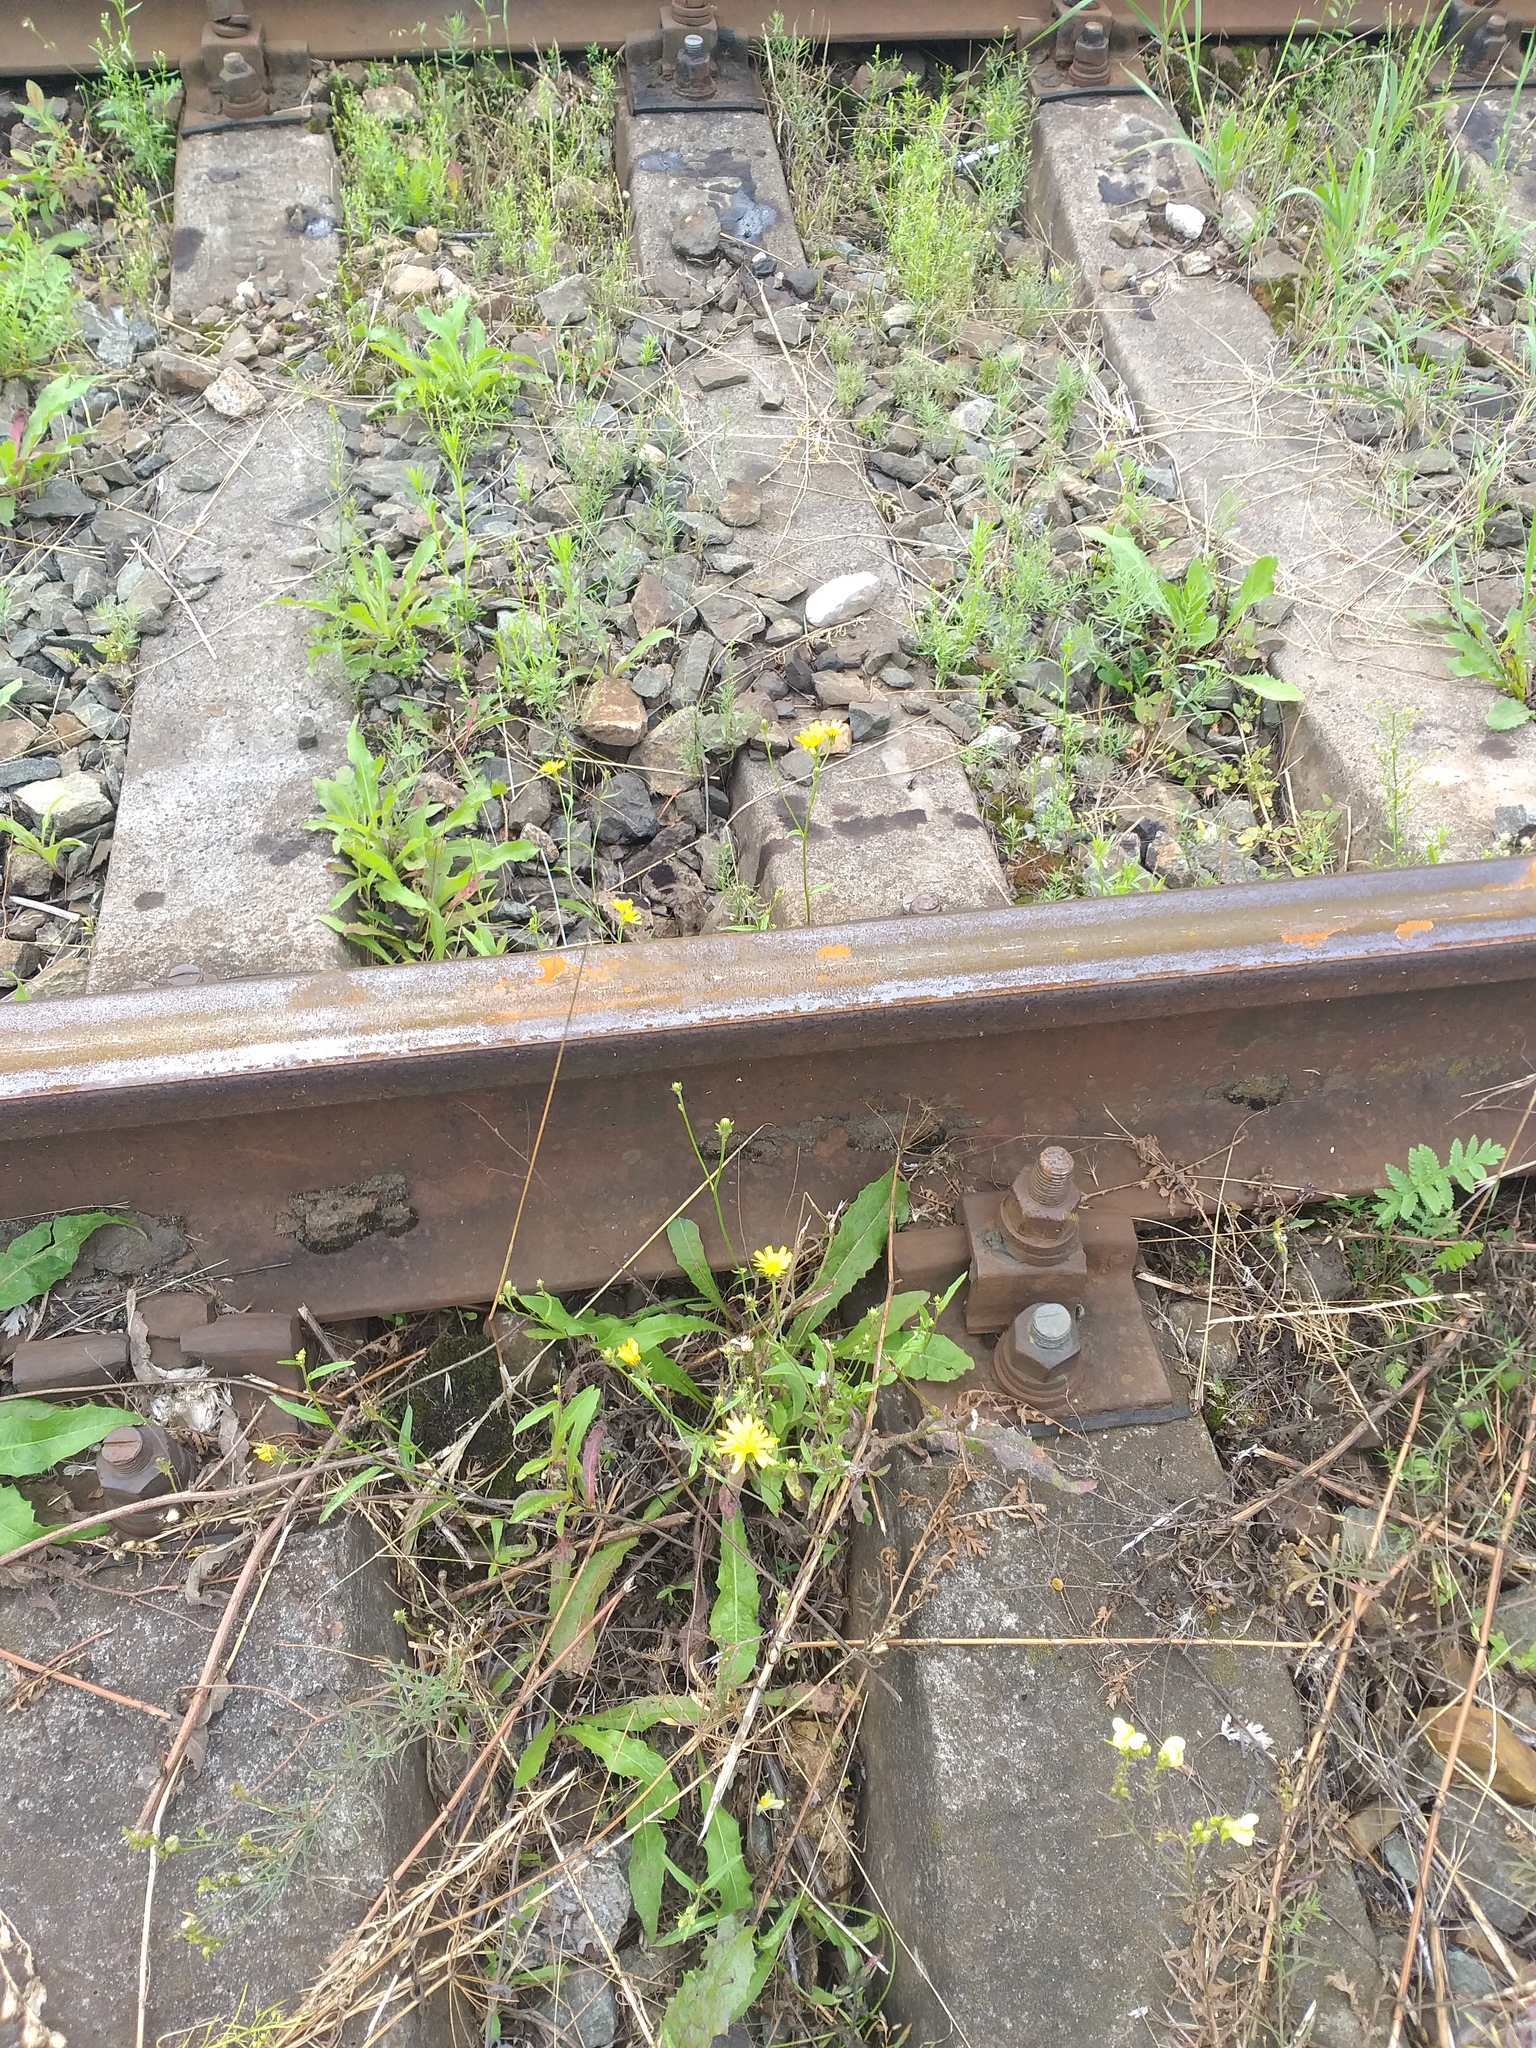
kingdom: Plantae
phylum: Tracheophyta
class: Magnoliopsida
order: Asterales
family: Asteraceae
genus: Picris
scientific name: Picris hieracioides
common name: Hawkweed oxtongue
